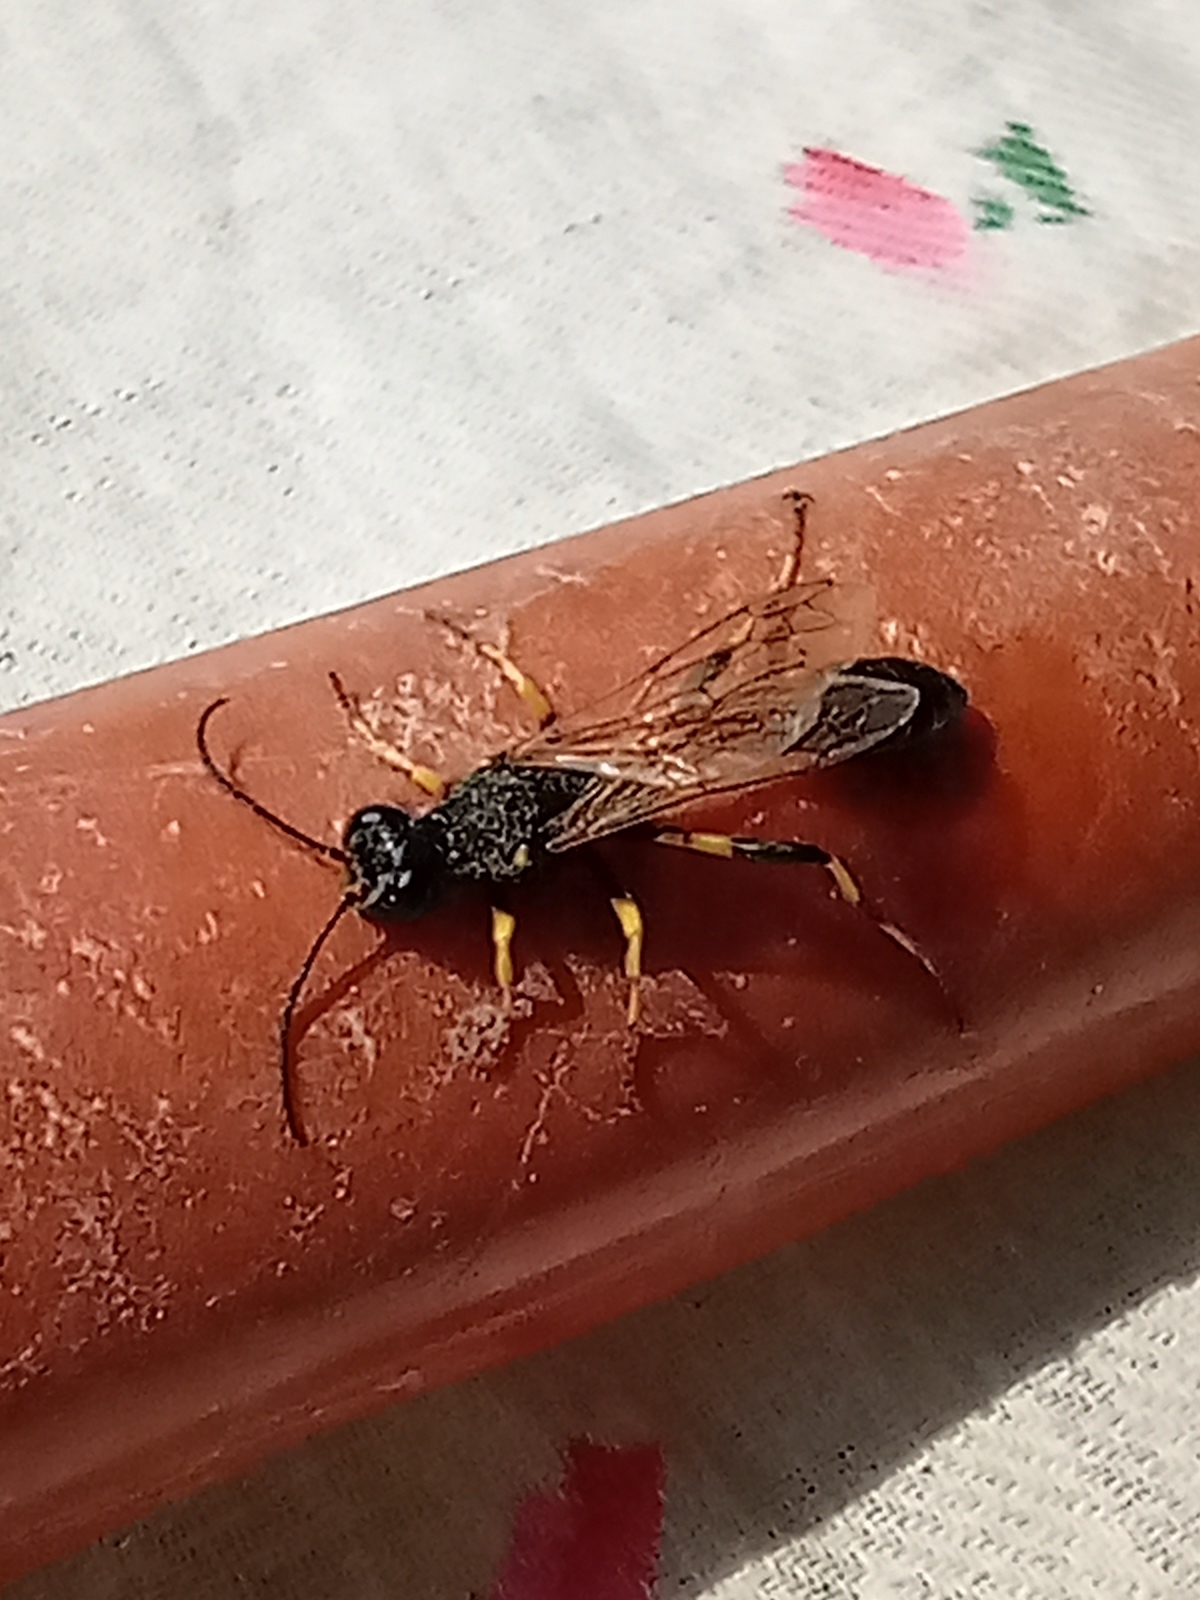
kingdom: Animalia
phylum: Arthropoda
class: Insecta
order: Hymenoptera
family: Sphecidae
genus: Sceliphron
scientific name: Sceliphron destillatorium
